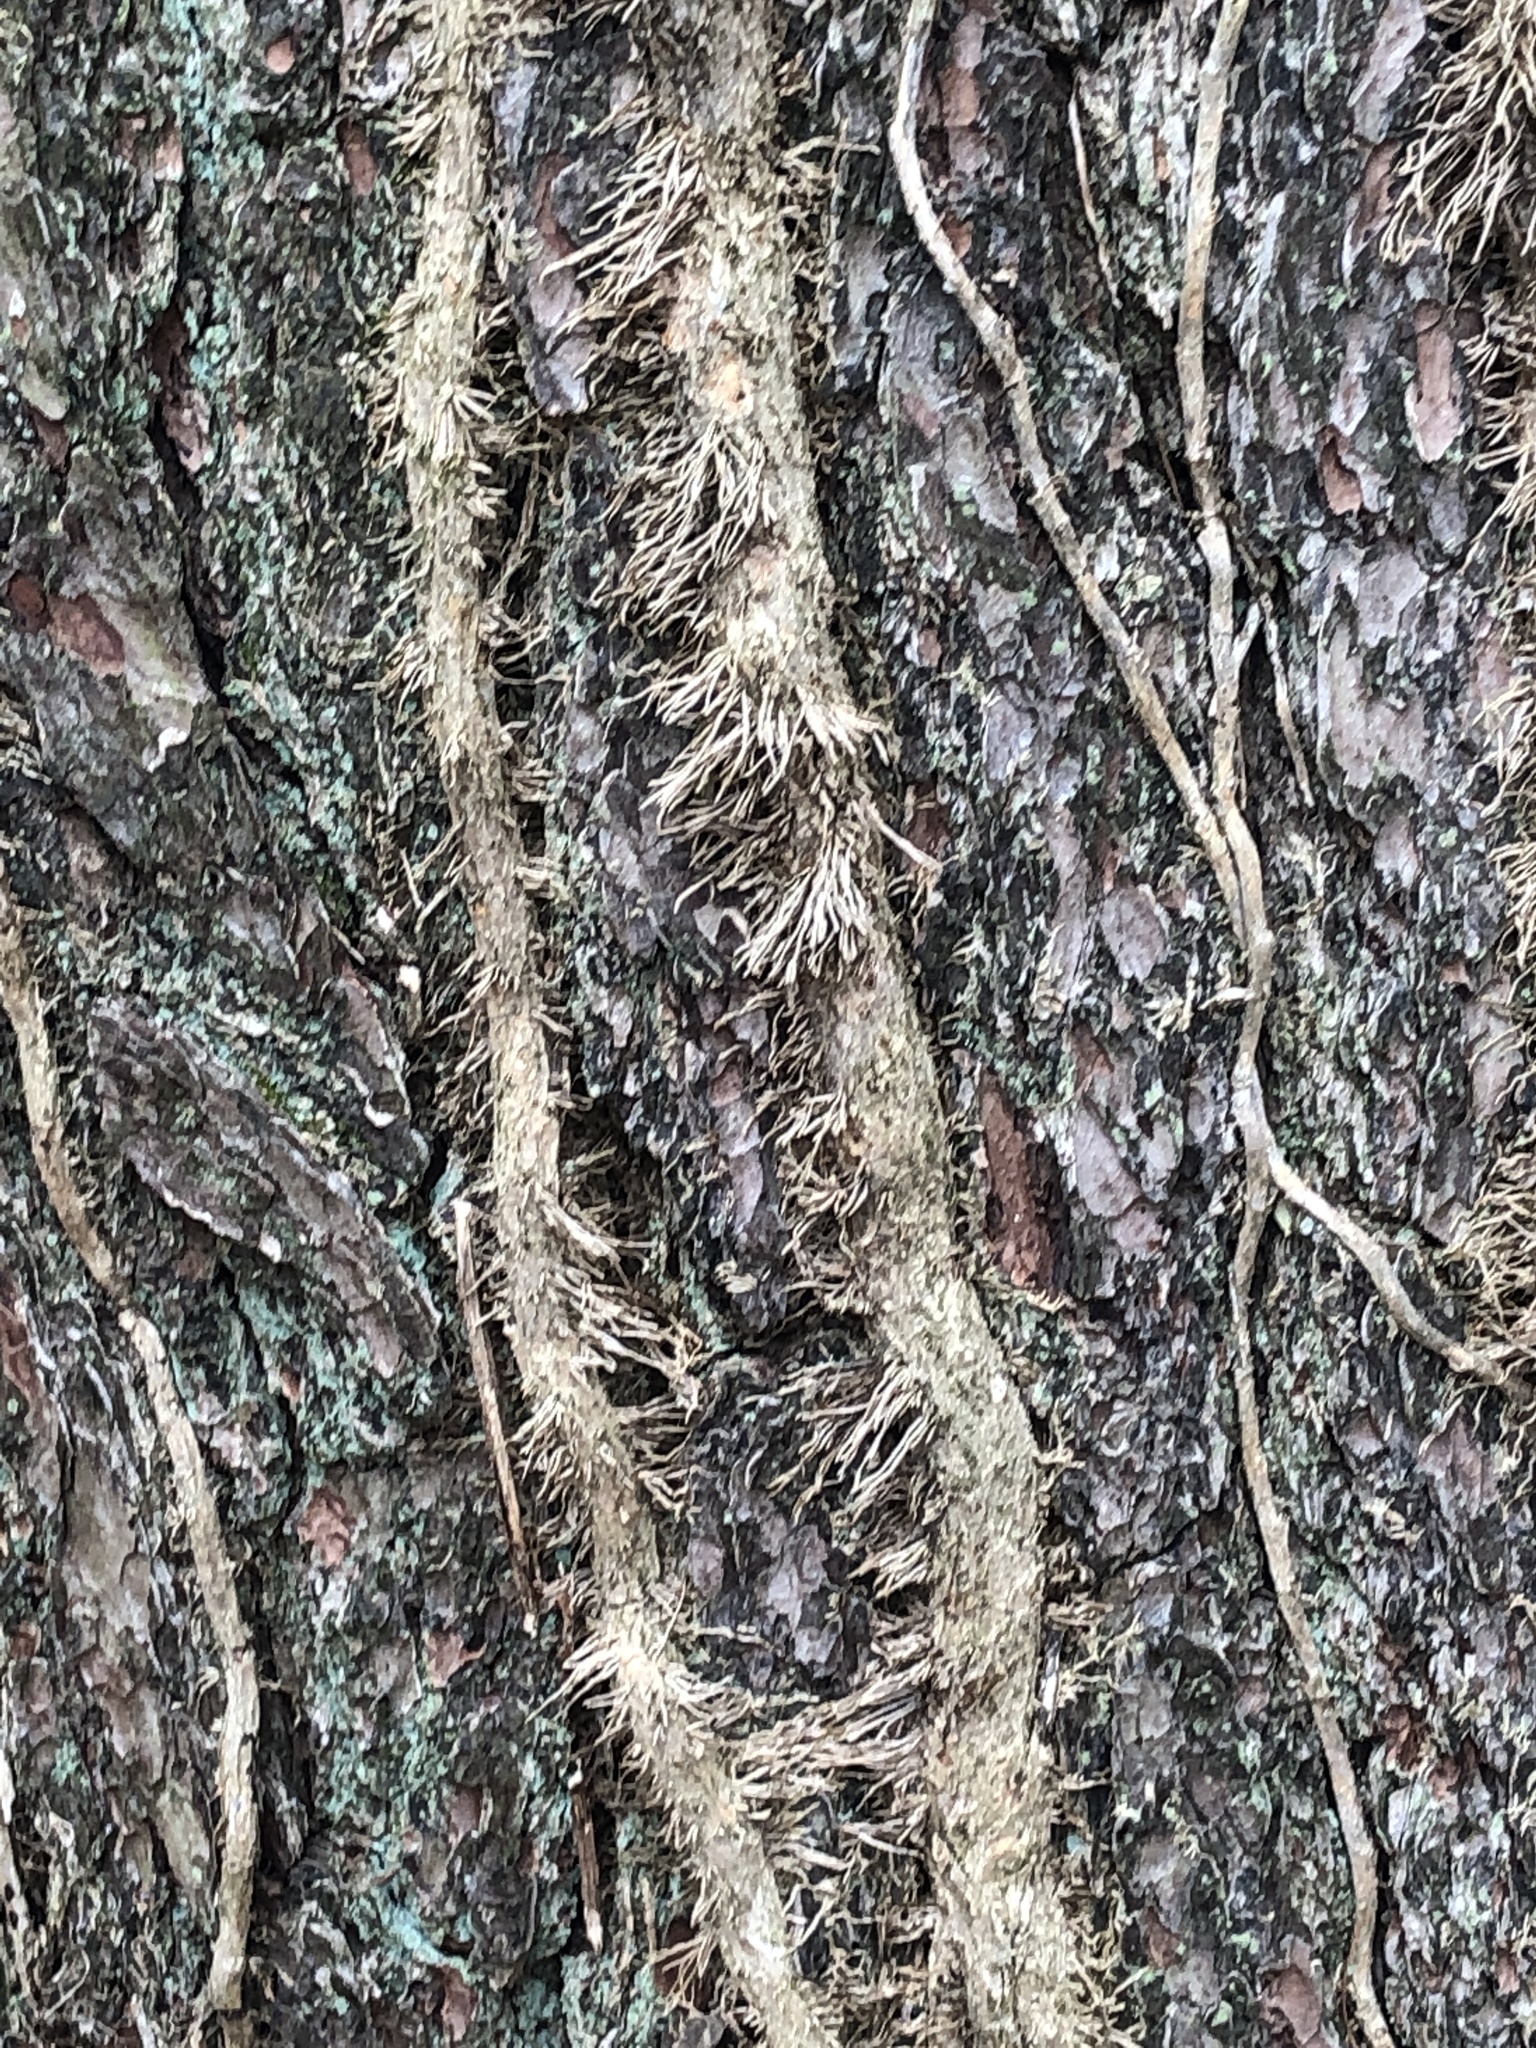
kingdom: Plantae
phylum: Tracheophyta
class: Magnoliopsida
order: Sapindales
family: Anacardiaceae
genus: Toxicodendron
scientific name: Toxicodendron radicans
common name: Poison ivy
